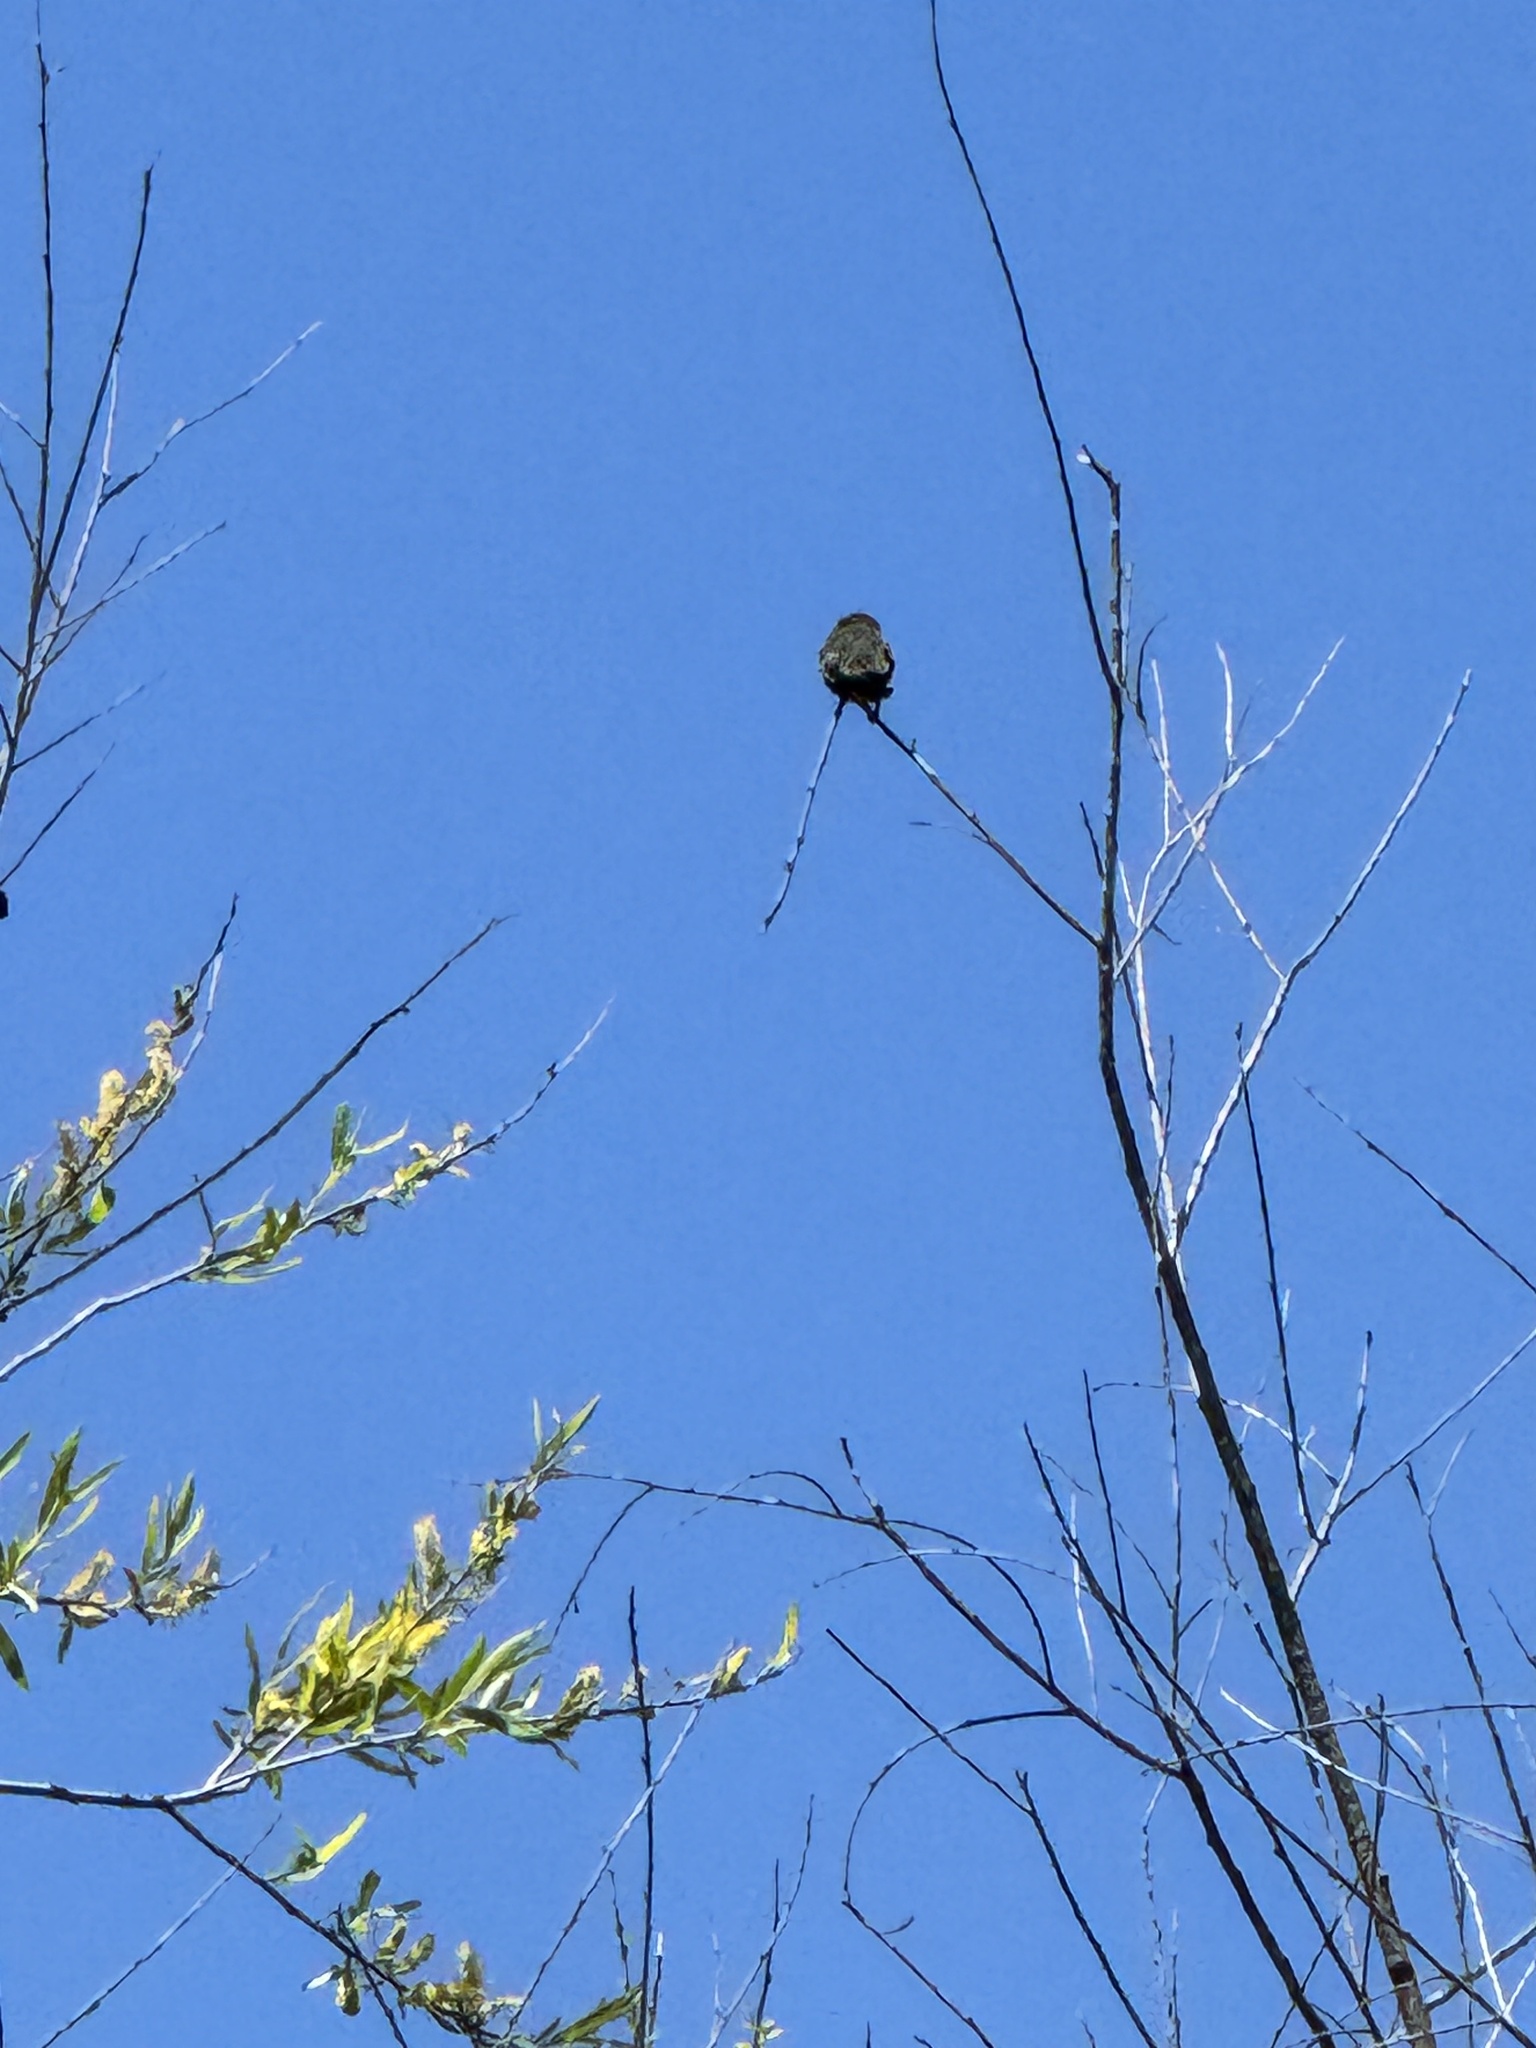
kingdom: Animalia
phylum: Chordata
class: Aves
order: Apodiformes
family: Trochilidae
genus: Calypte
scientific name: Calypte anna
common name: Anna's hummingbird
